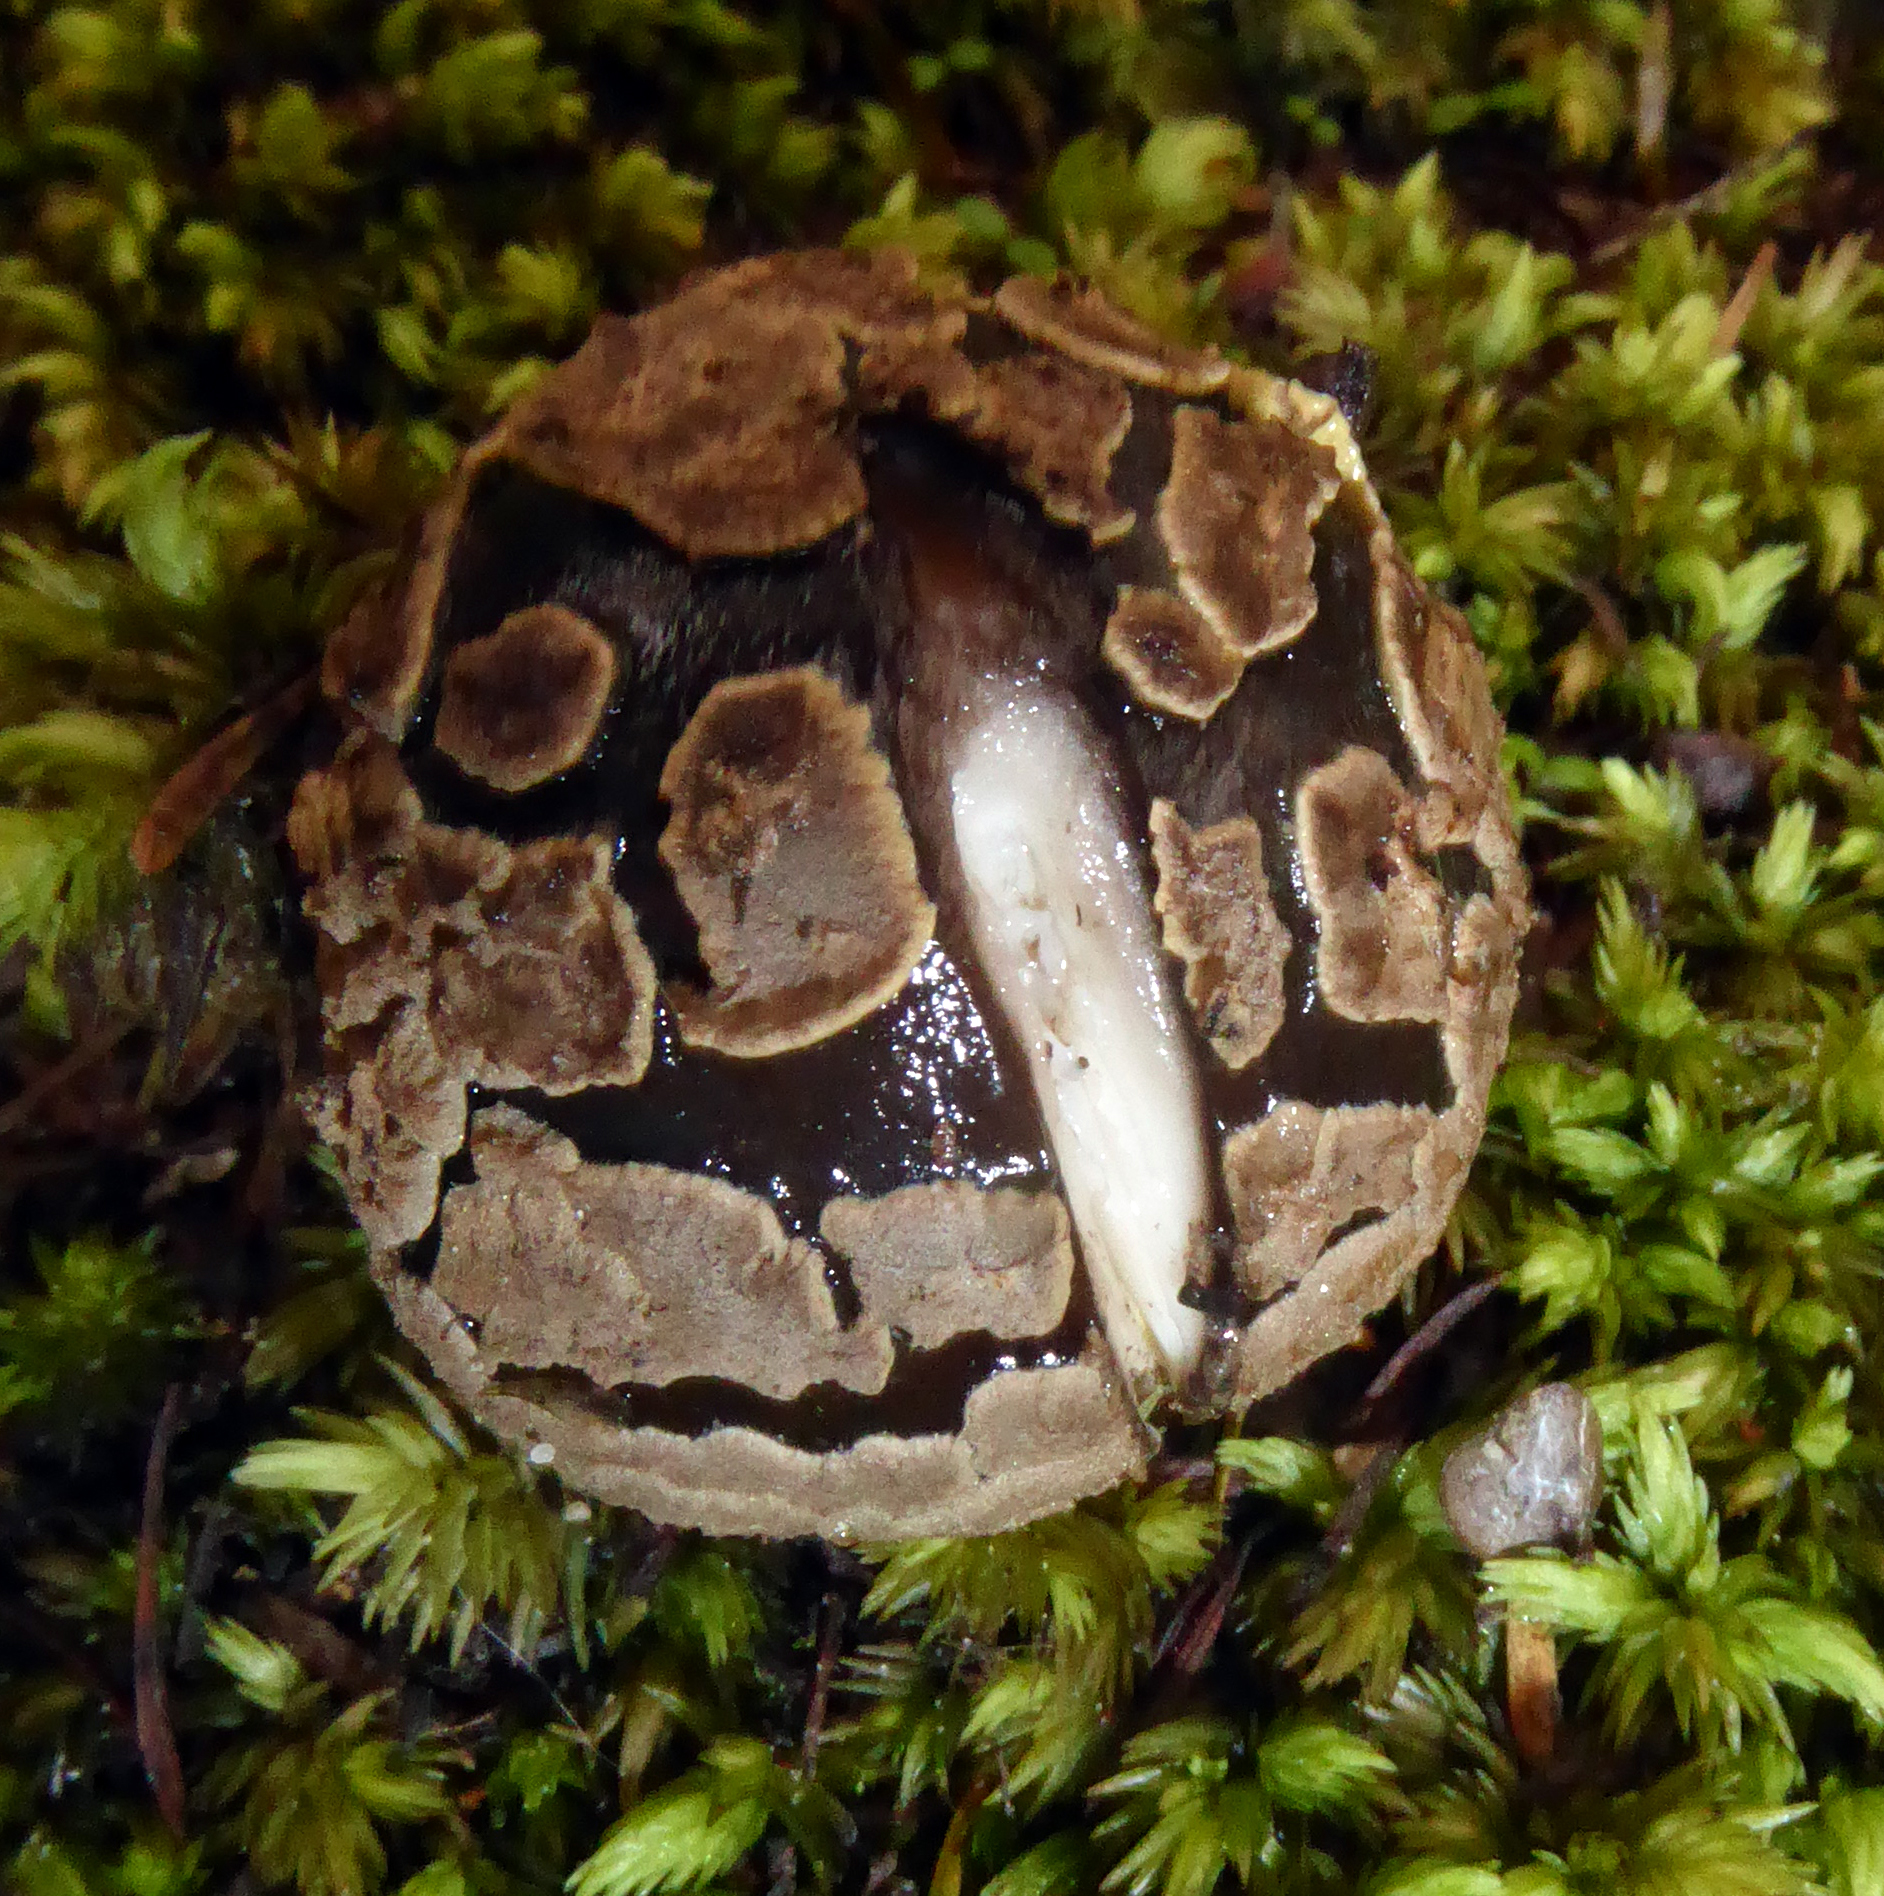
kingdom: Fungi
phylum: Basidiomycota
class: Agaricomycetes
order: Agaricales
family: Amanitaceae
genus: Amanita
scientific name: Amanita nothofagi
